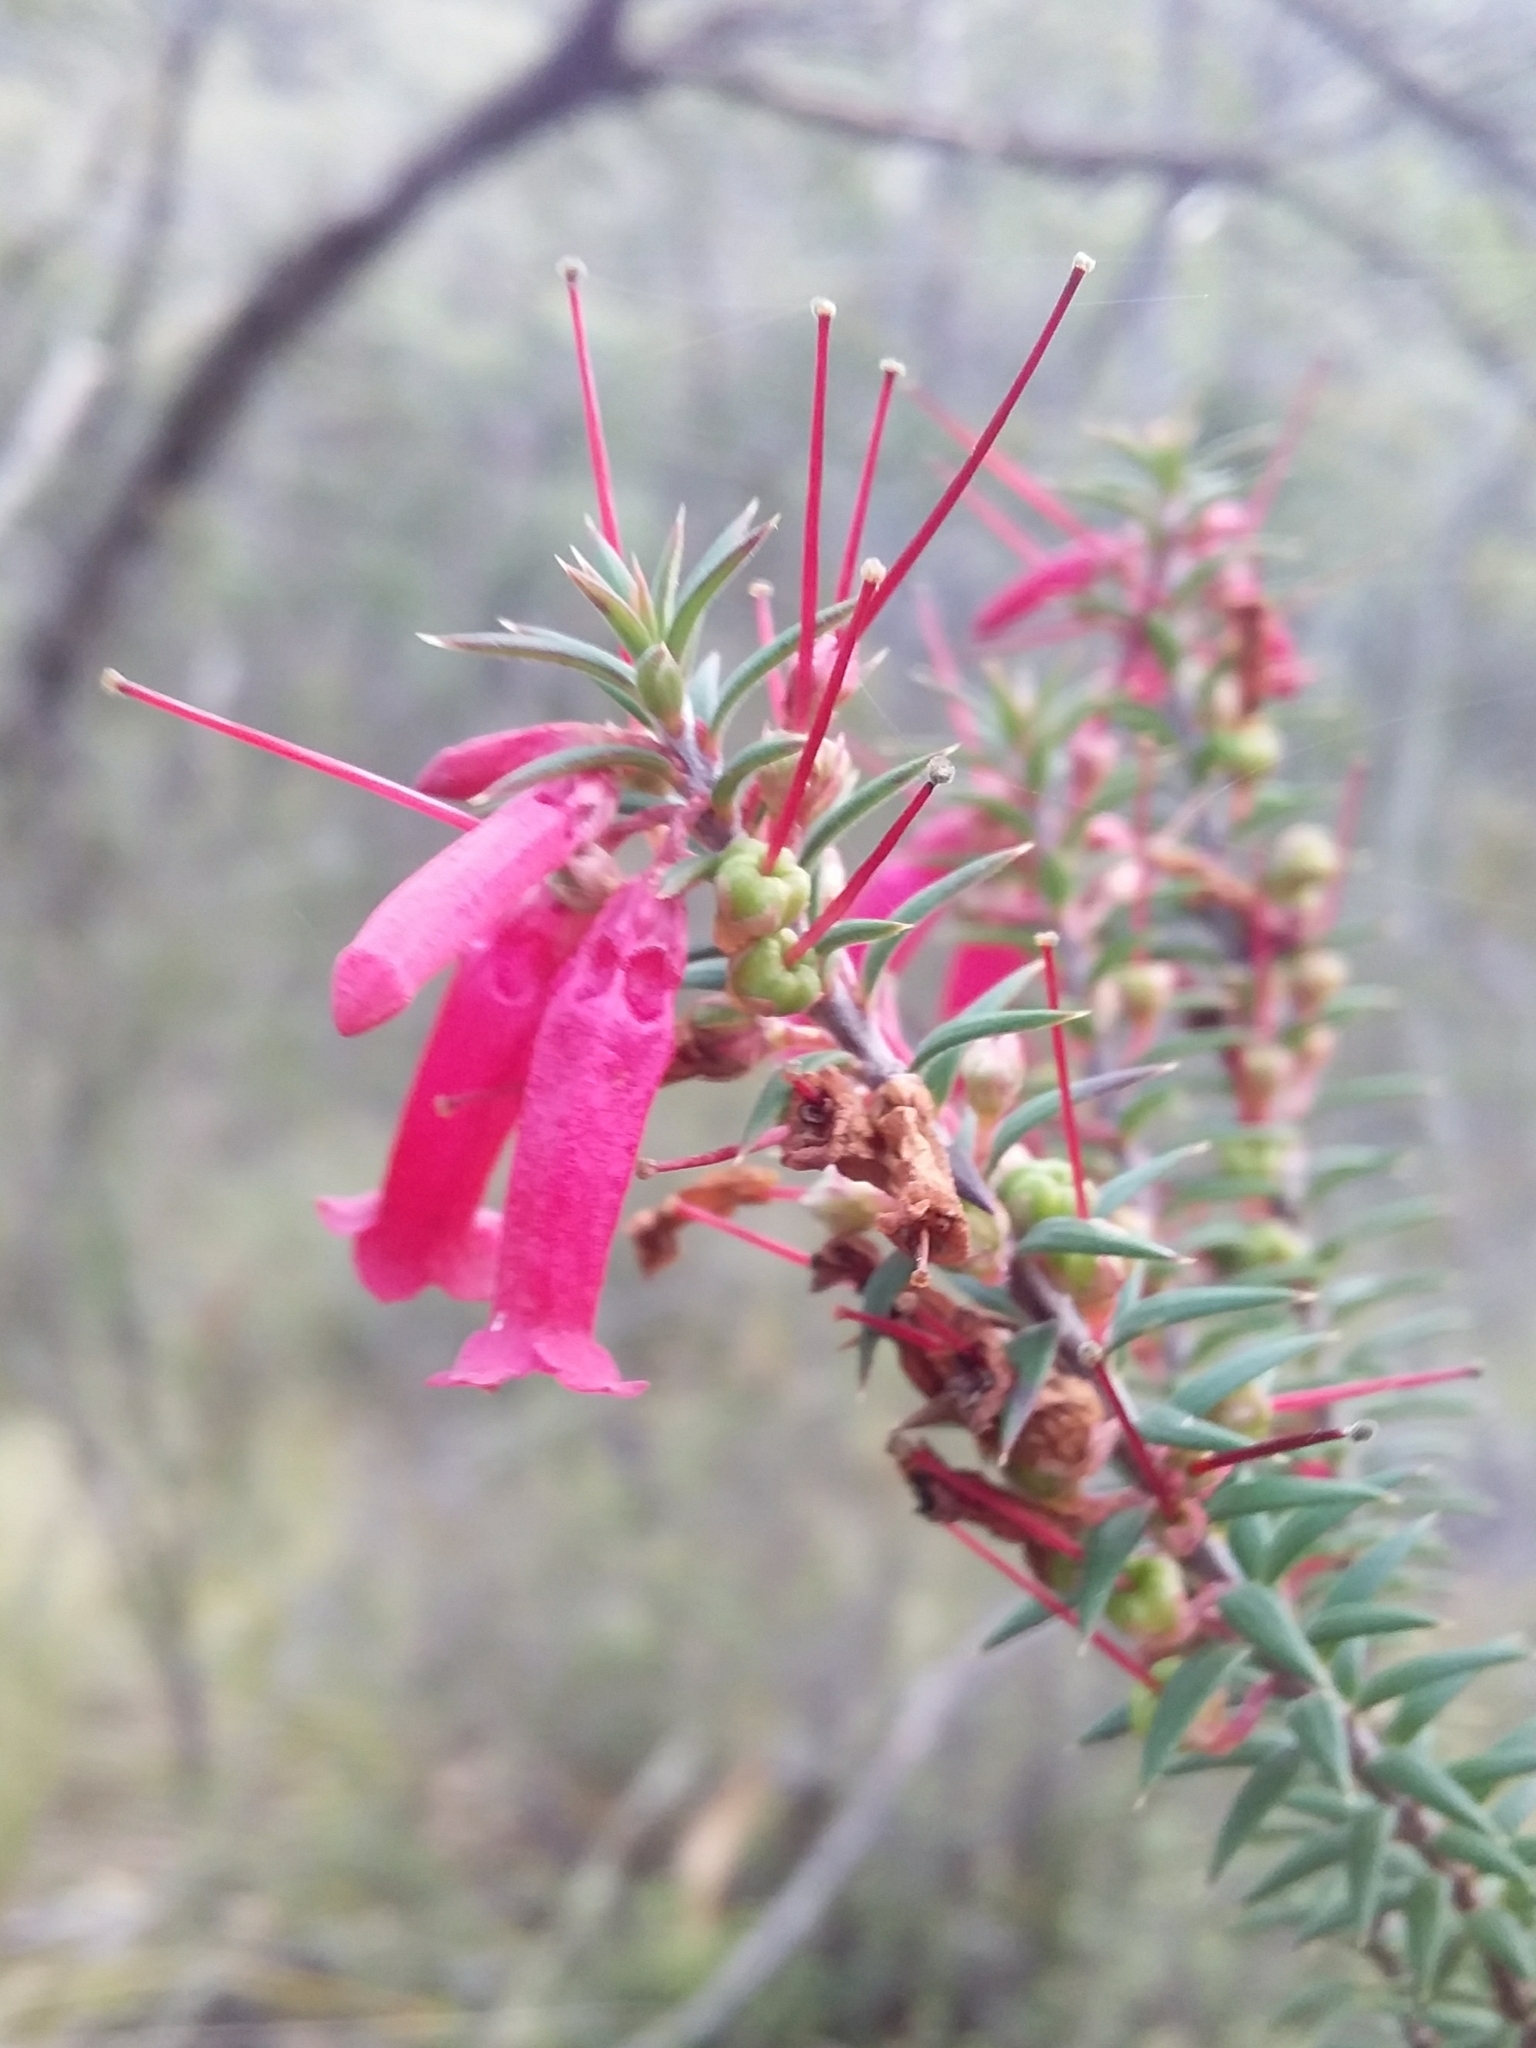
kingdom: Plantae
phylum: Tracheophyta
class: Magnoliopsida
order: Ericales
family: Ericaceae
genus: Epacris
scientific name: Epacris impressa
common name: Common-heath
